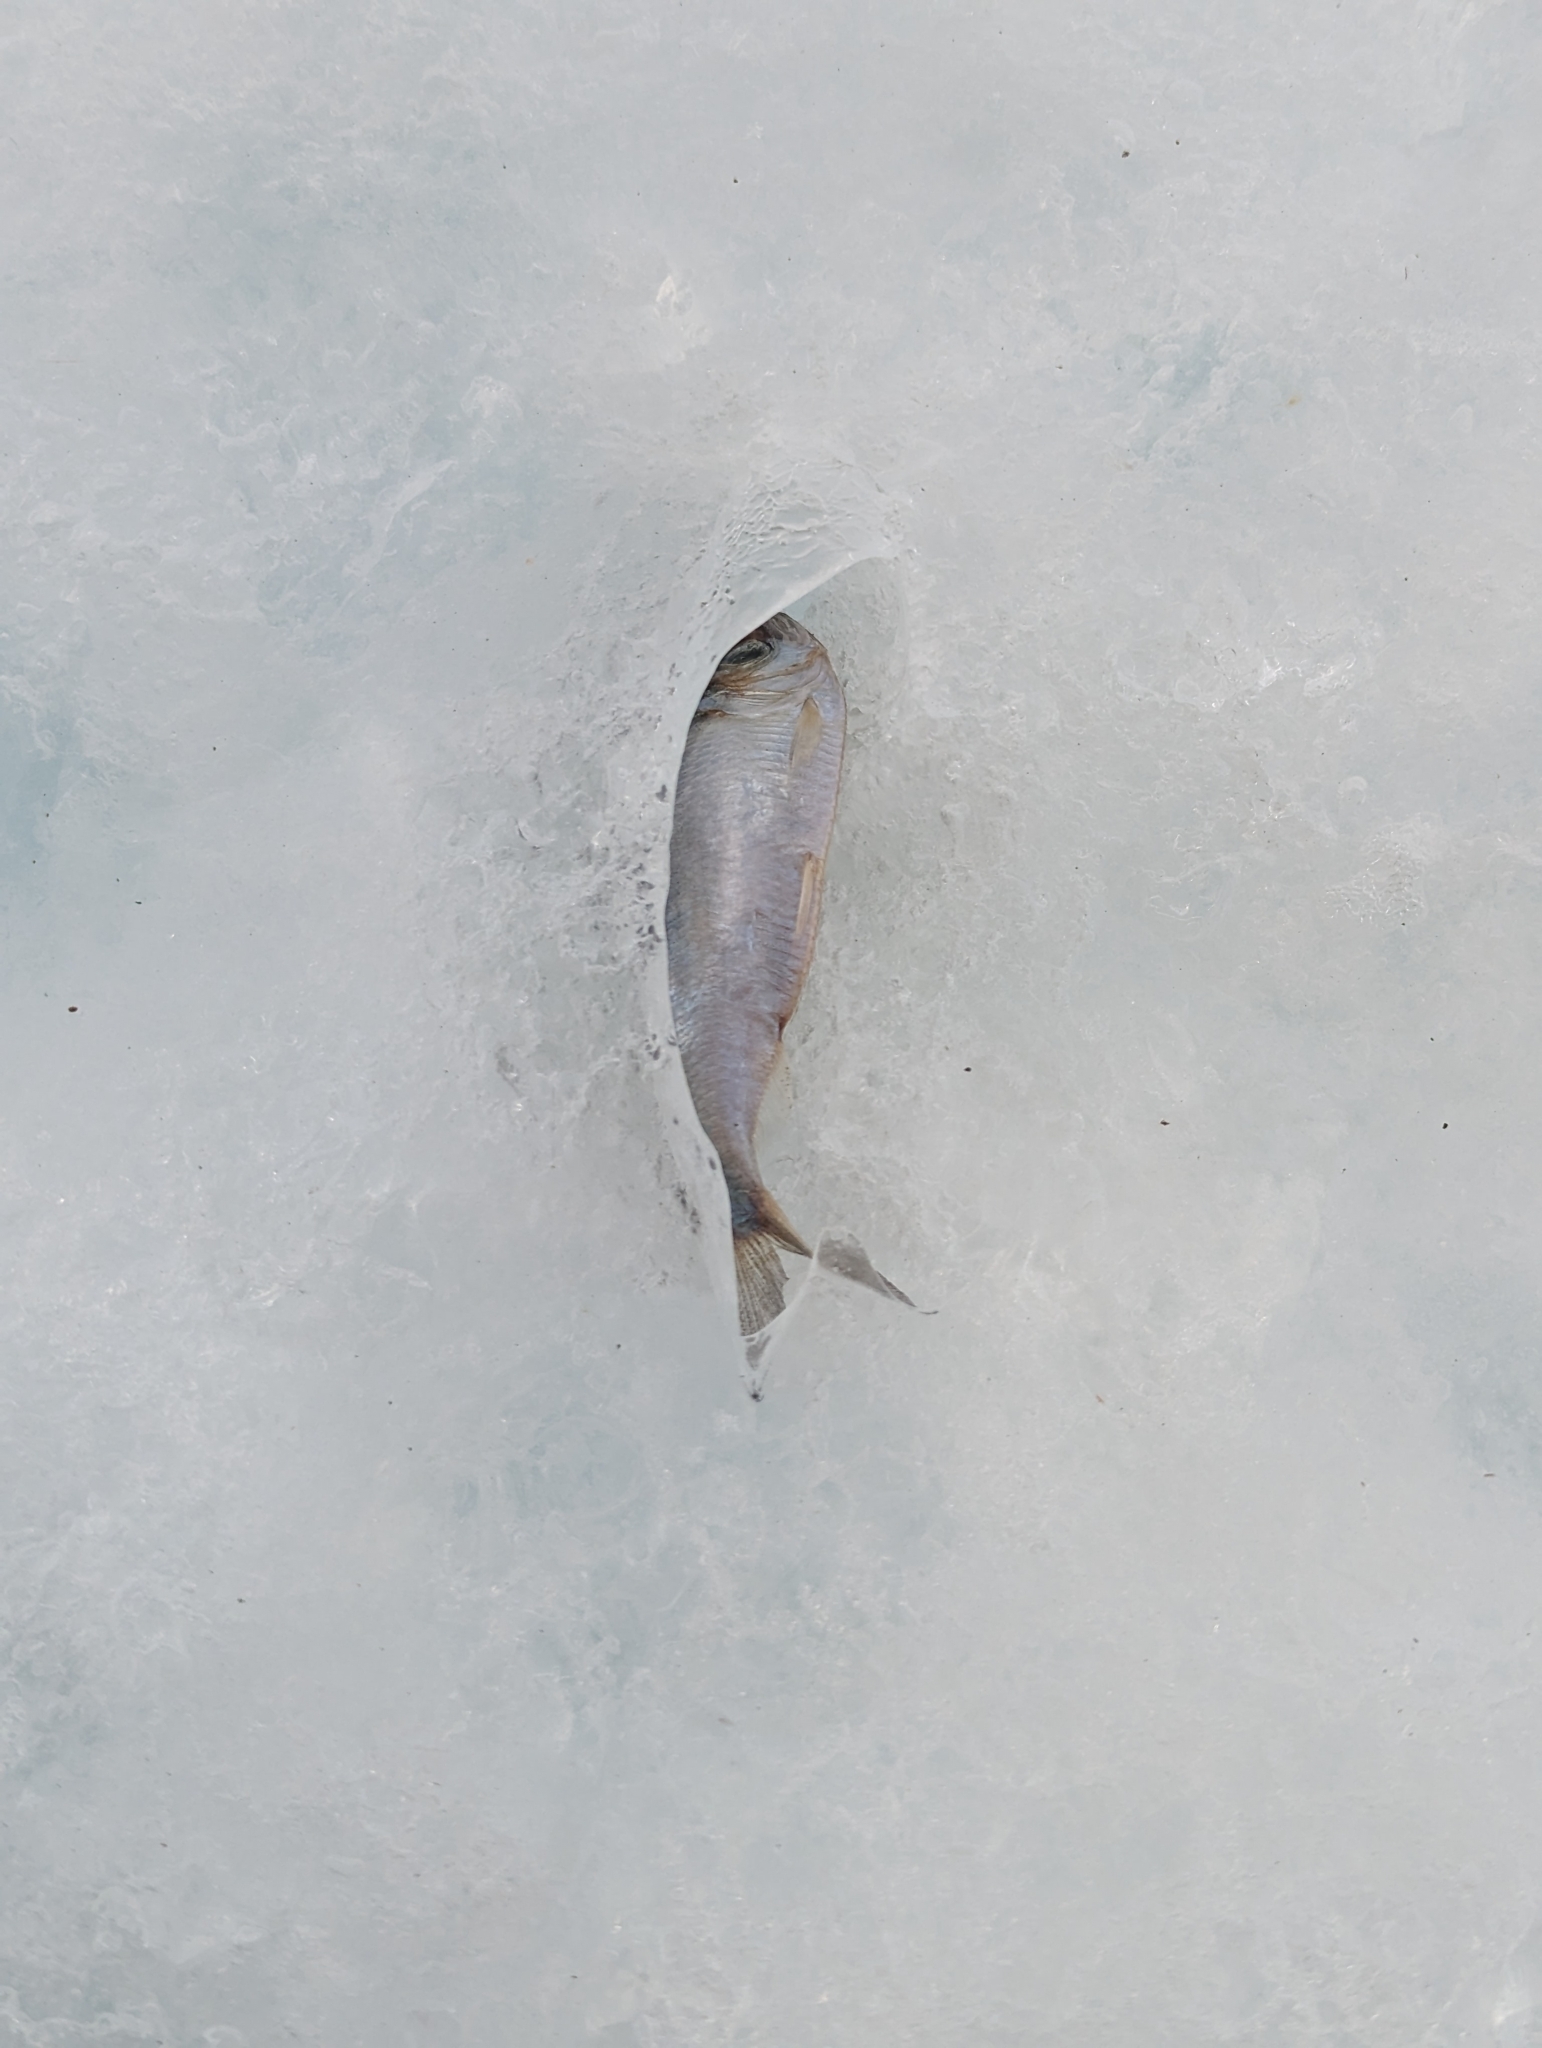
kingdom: Animalia
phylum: Chordata
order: Clupeiformes
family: Clupeidae
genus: Alosa
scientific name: Alosa pseudoharengus
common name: Alewife
